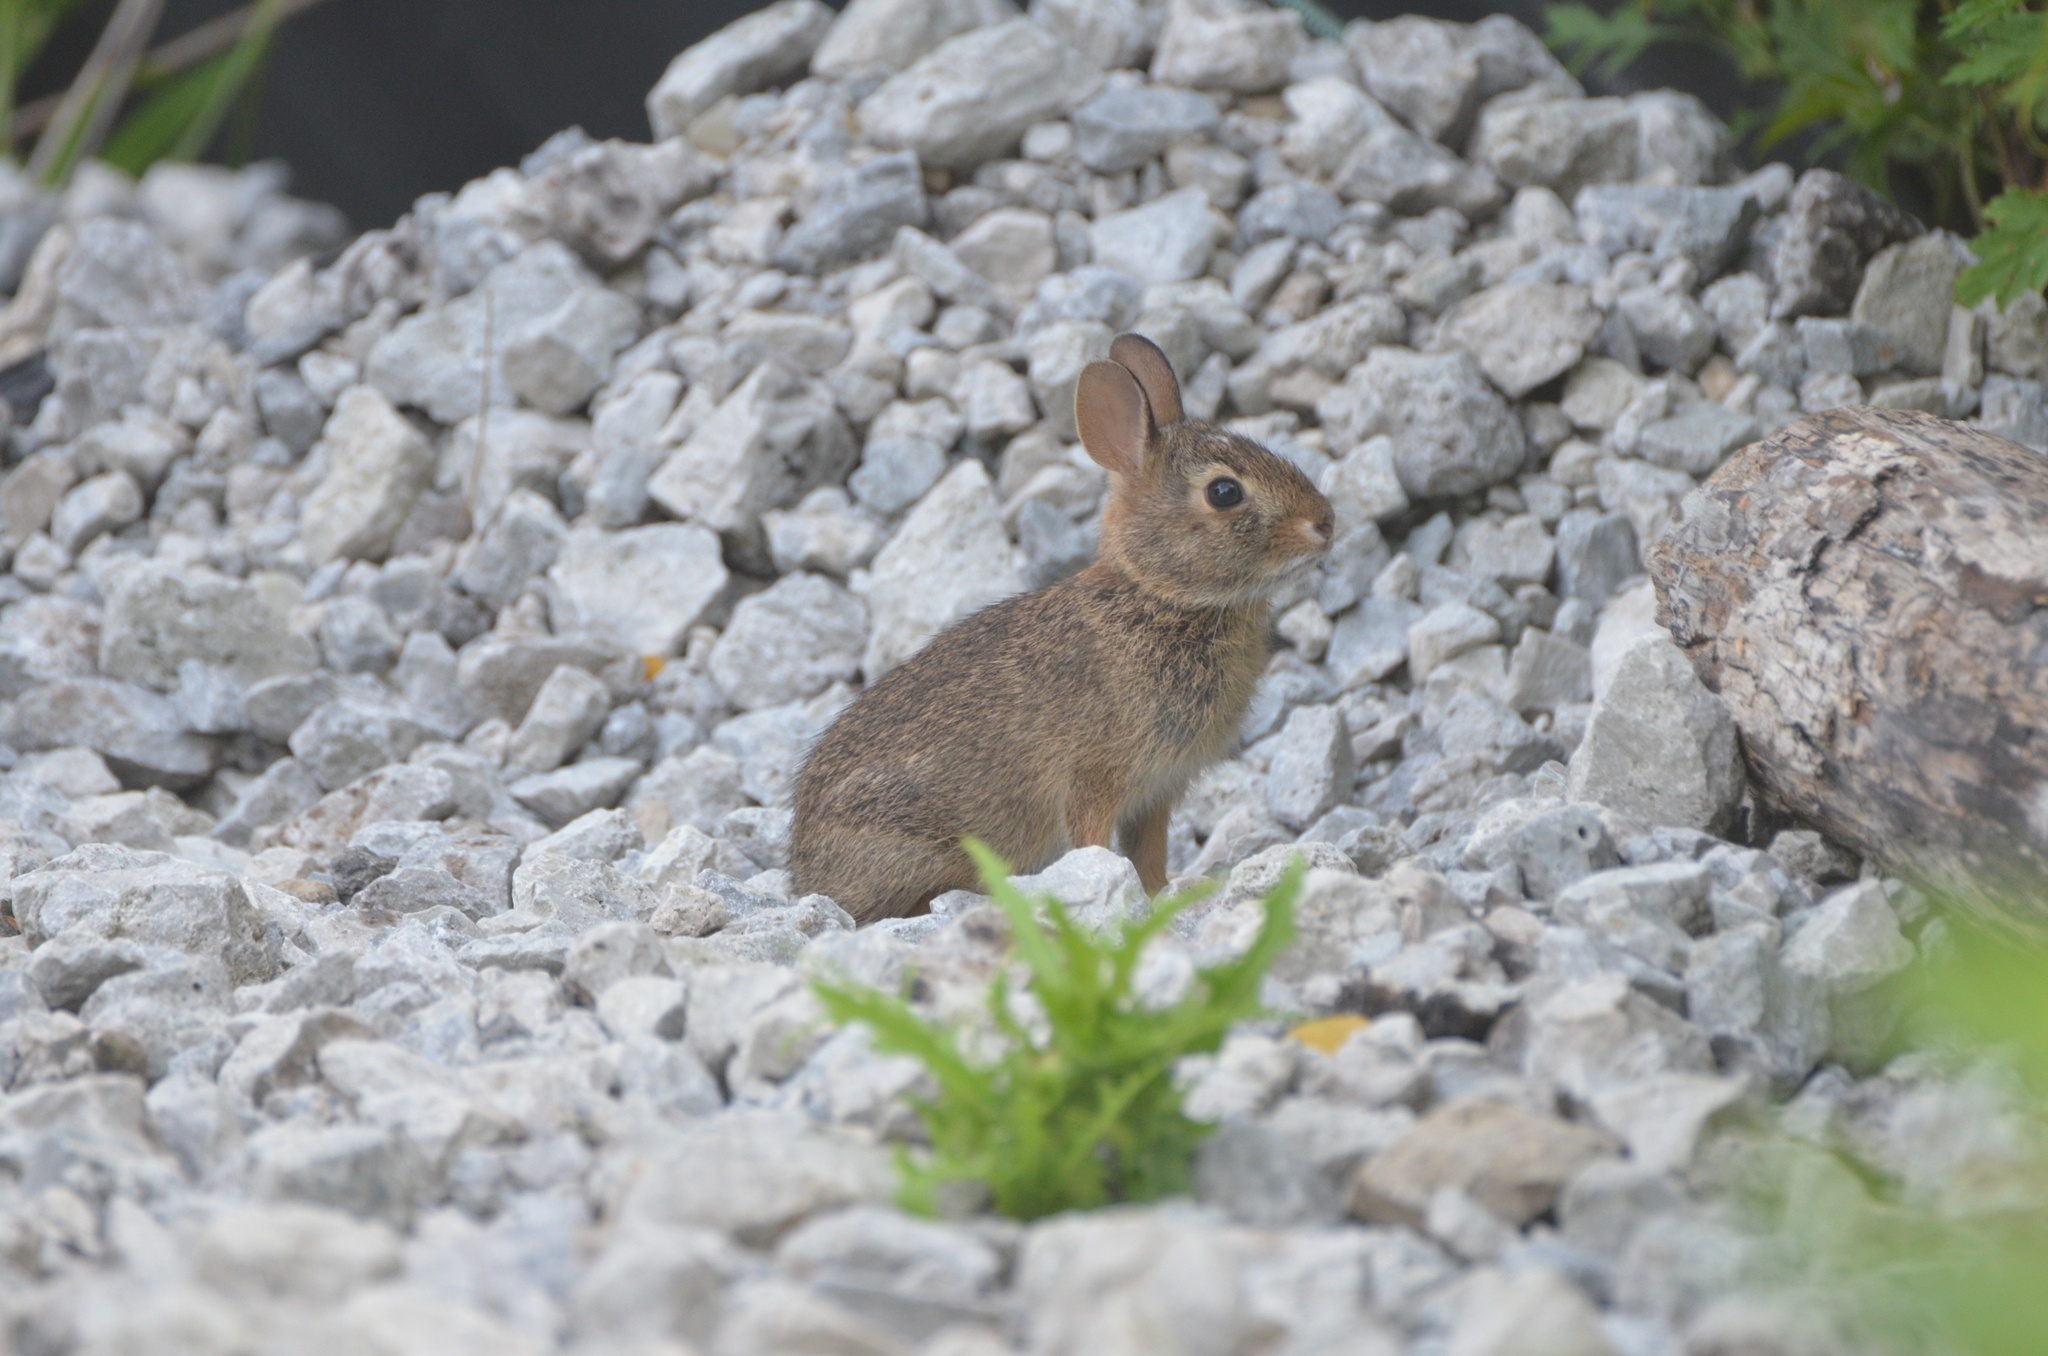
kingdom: Animalia
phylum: Chordata
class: Mammalia
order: Lagomorpha
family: Leporidae
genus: Sylvilagus
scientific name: Sylvilagus floridanus
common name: Eastern cottontail
